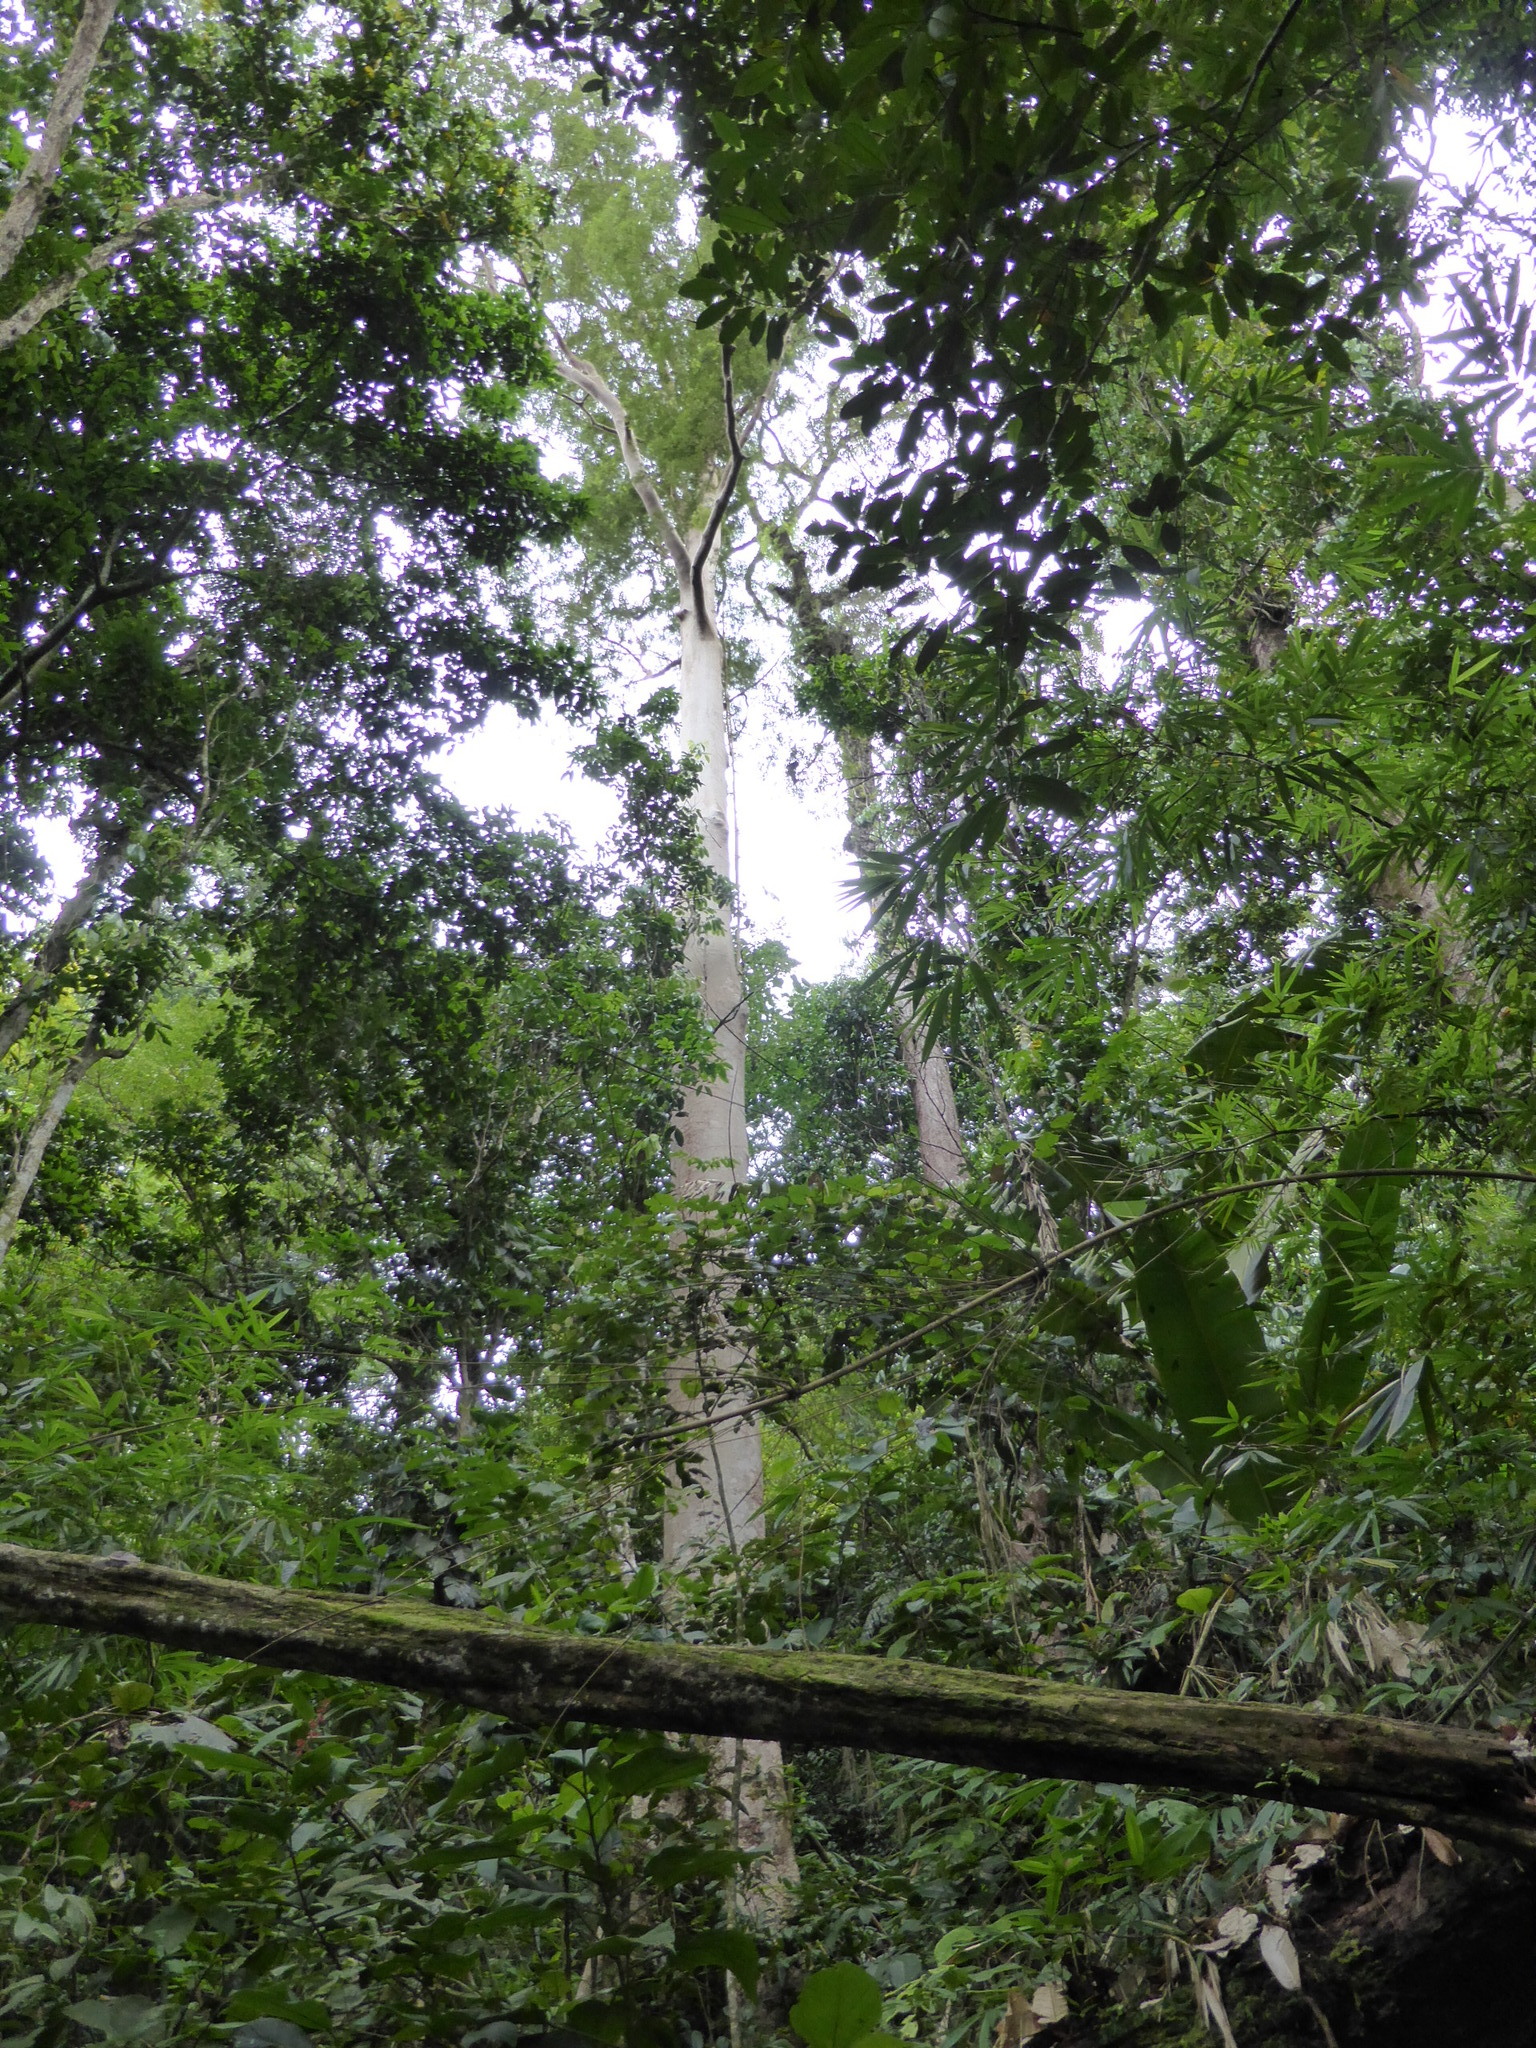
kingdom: Plantae
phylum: Tracheophyta
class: Magnoliopsida
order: Fabales
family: Fabaceae
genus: Koompassia
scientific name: Koompassia excelsa
